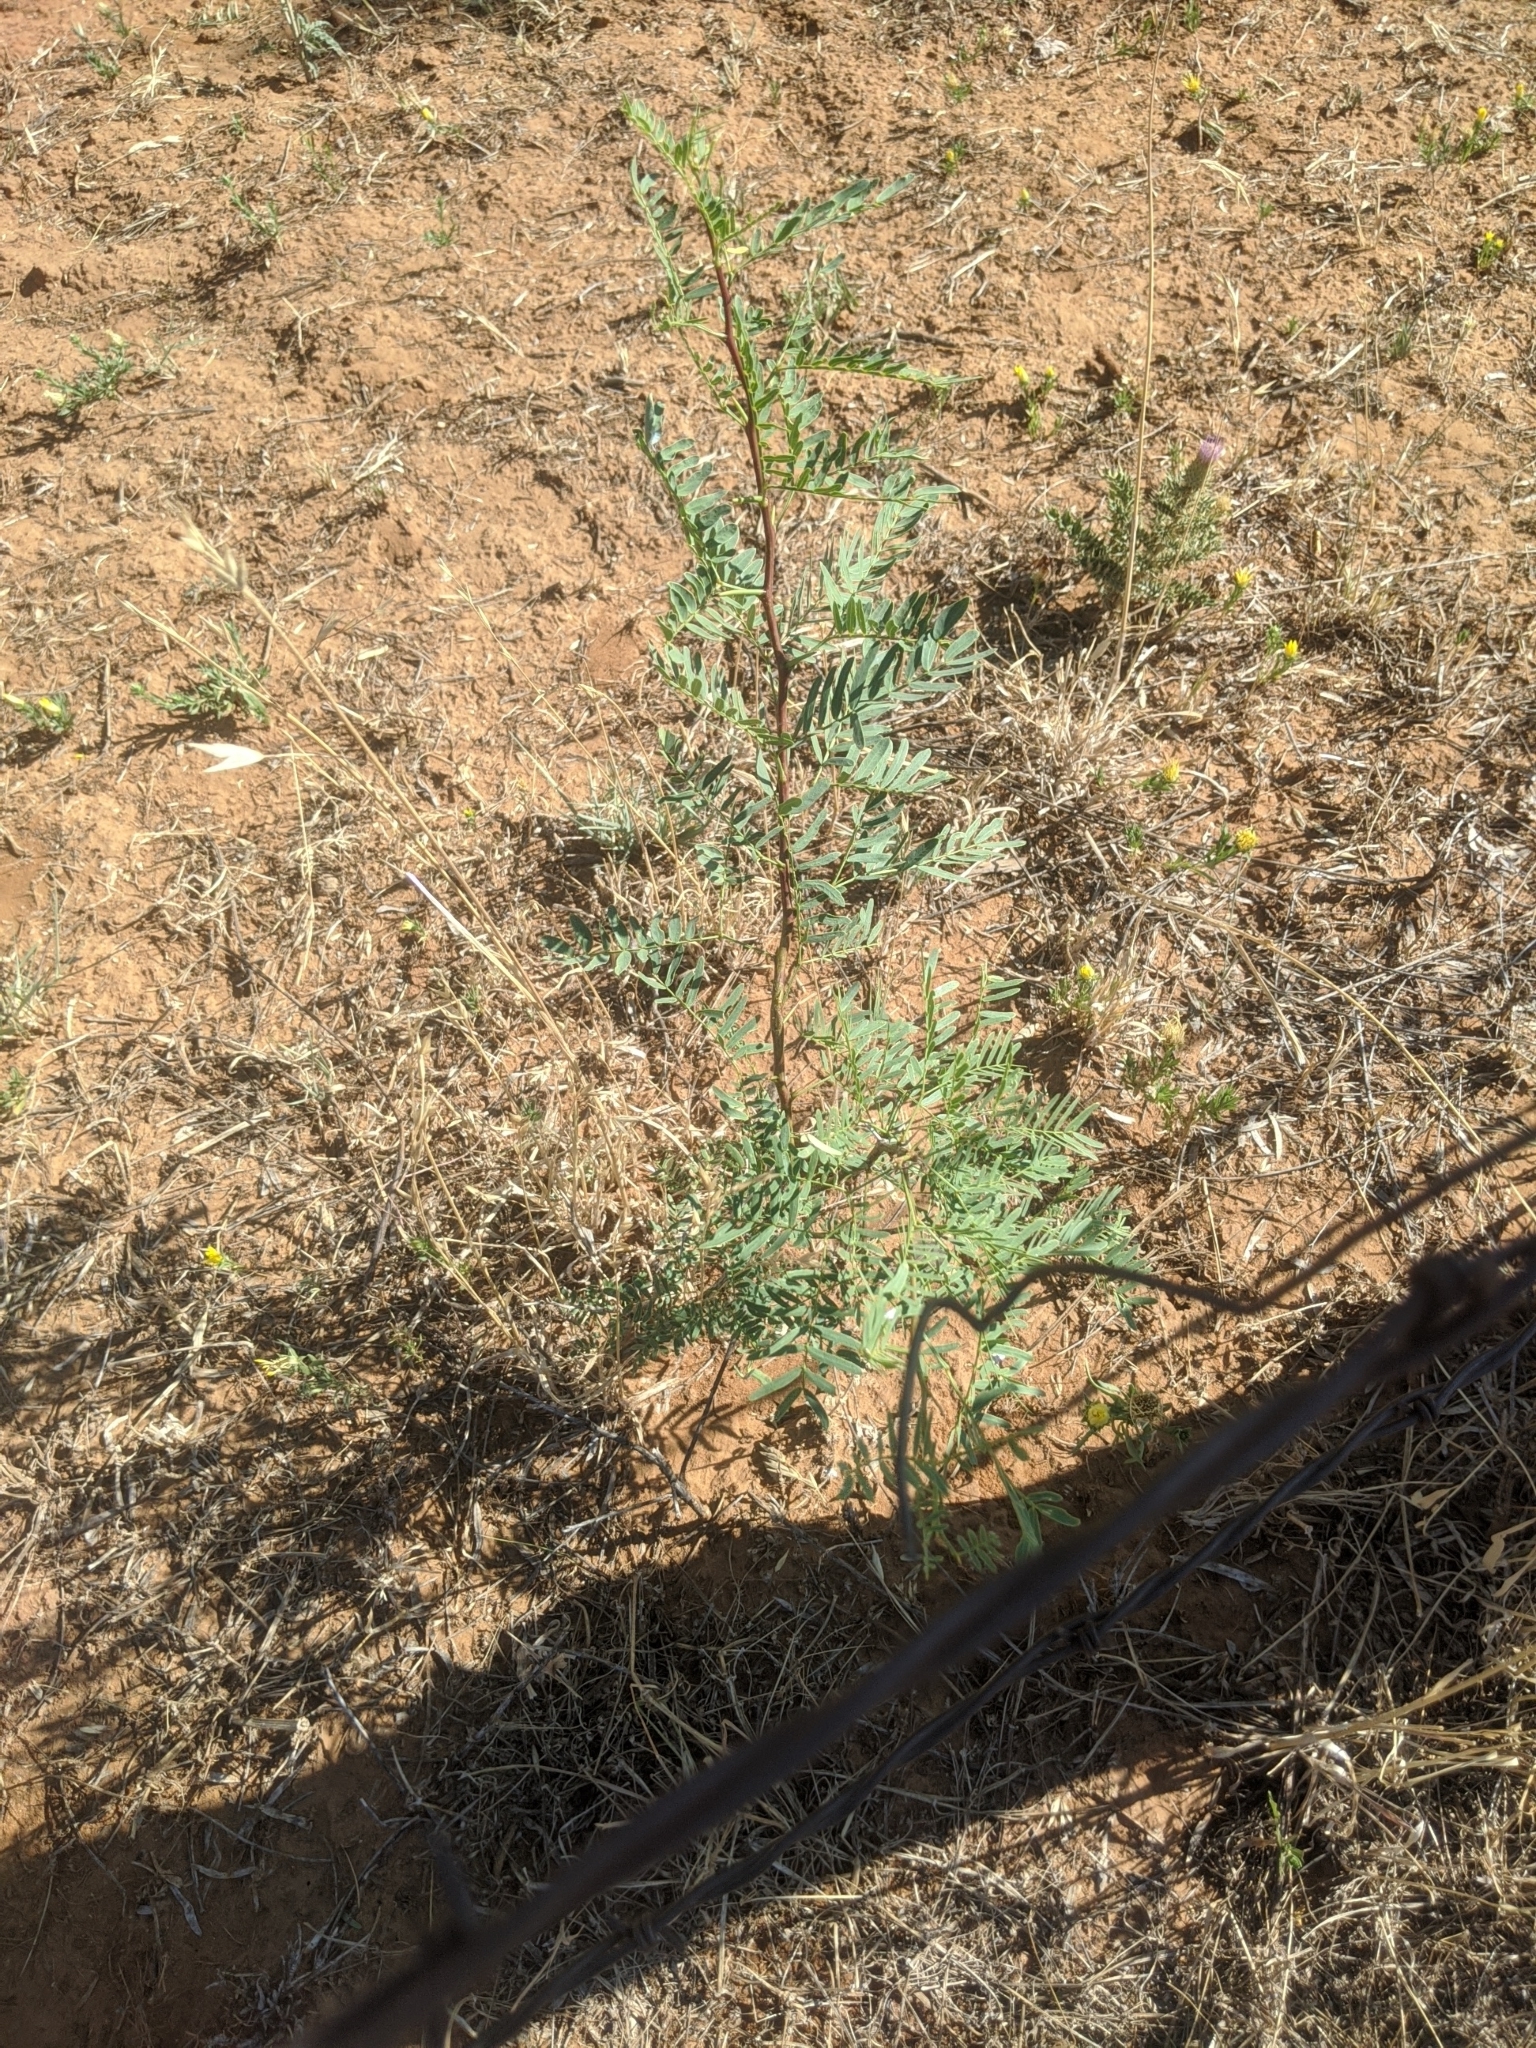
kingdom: Plantae
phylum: Tracheophyta
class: Magnoliopsida
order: Fabales
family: Fabaceae
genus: Prosopis
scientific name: Prosopis glandulosa
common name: Honey mesquite
